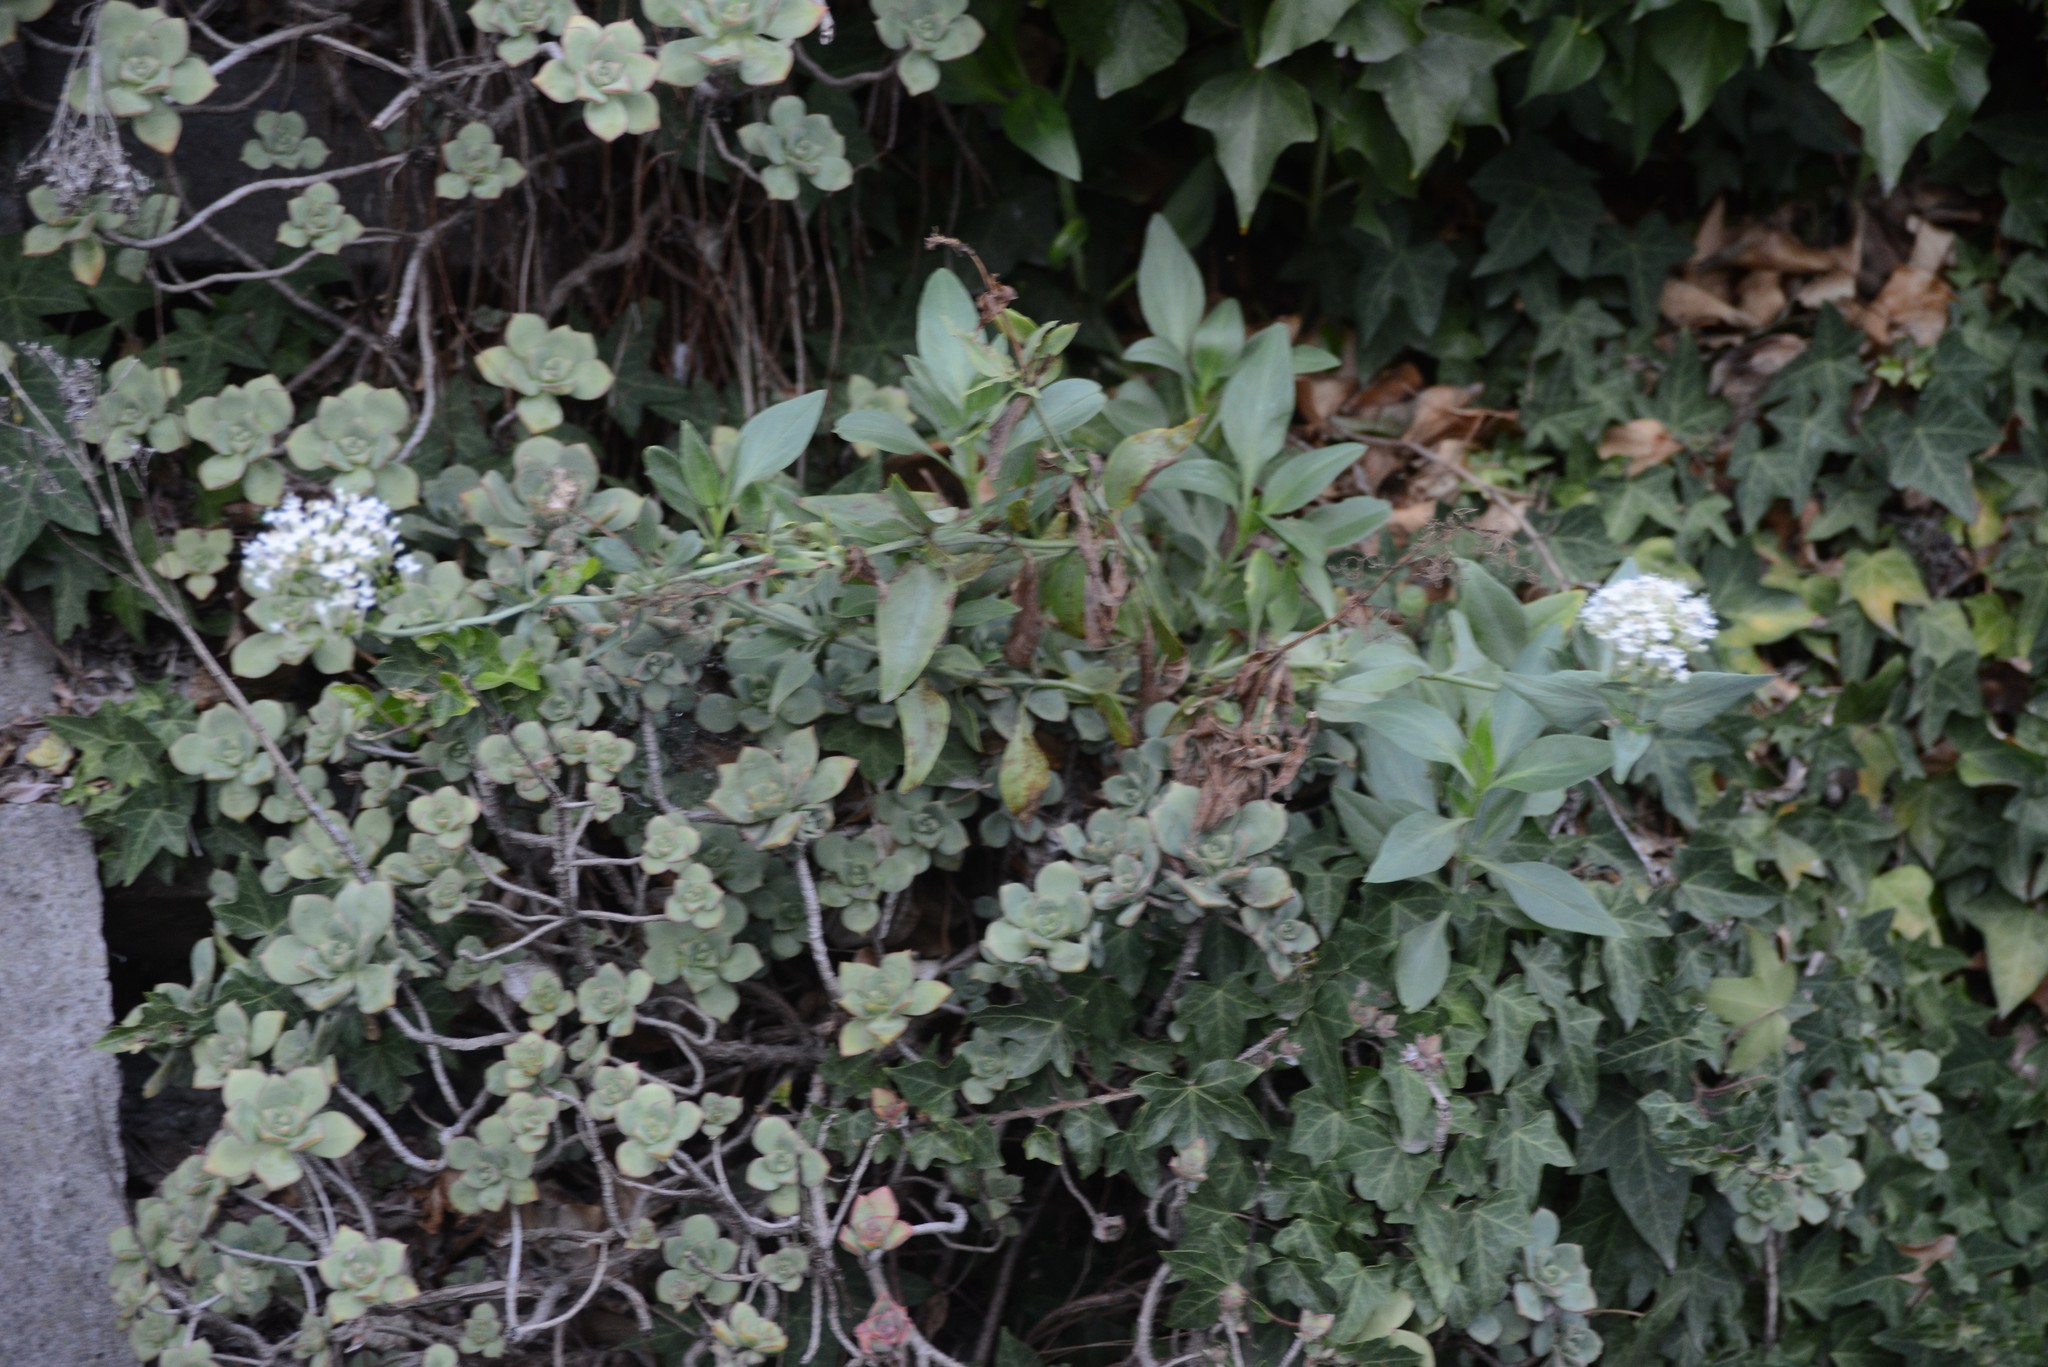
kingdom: Plantae
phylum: Tracheophyta
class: Magnoliopsida
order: Dipsacales
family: Caprifoliaceae
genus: Centranthus
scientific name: Centranthus ruber
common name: Red valerian
